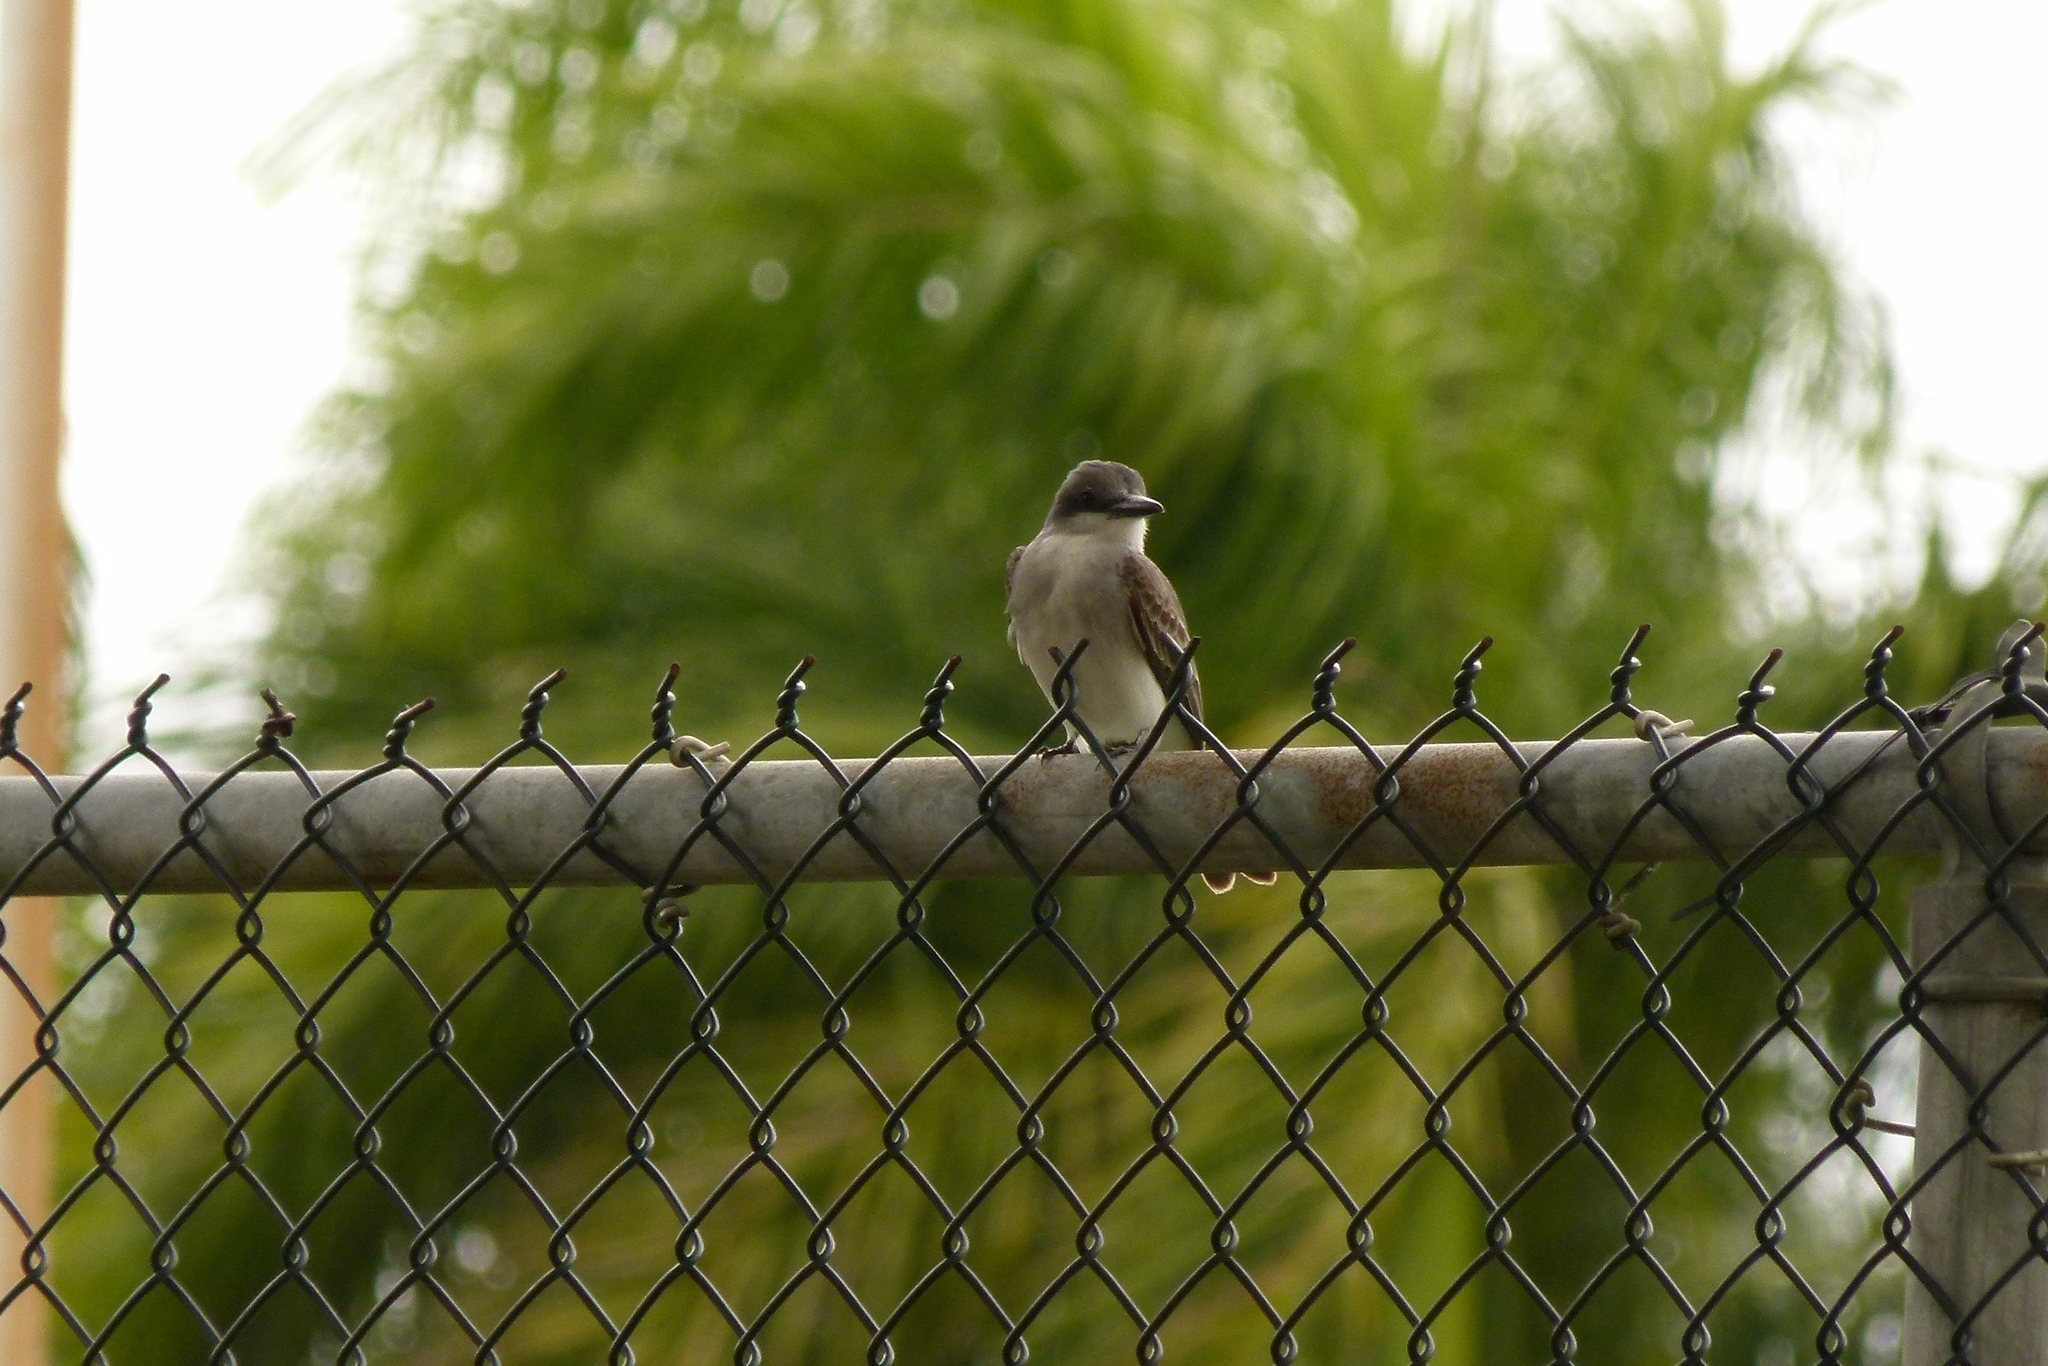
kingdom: Animalia
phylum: Chordata
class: Aves
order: Passeriformes
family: Tyrannidae
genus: Tyrannus
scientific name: Tyrannus dominicensis
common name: Gray kingbird
